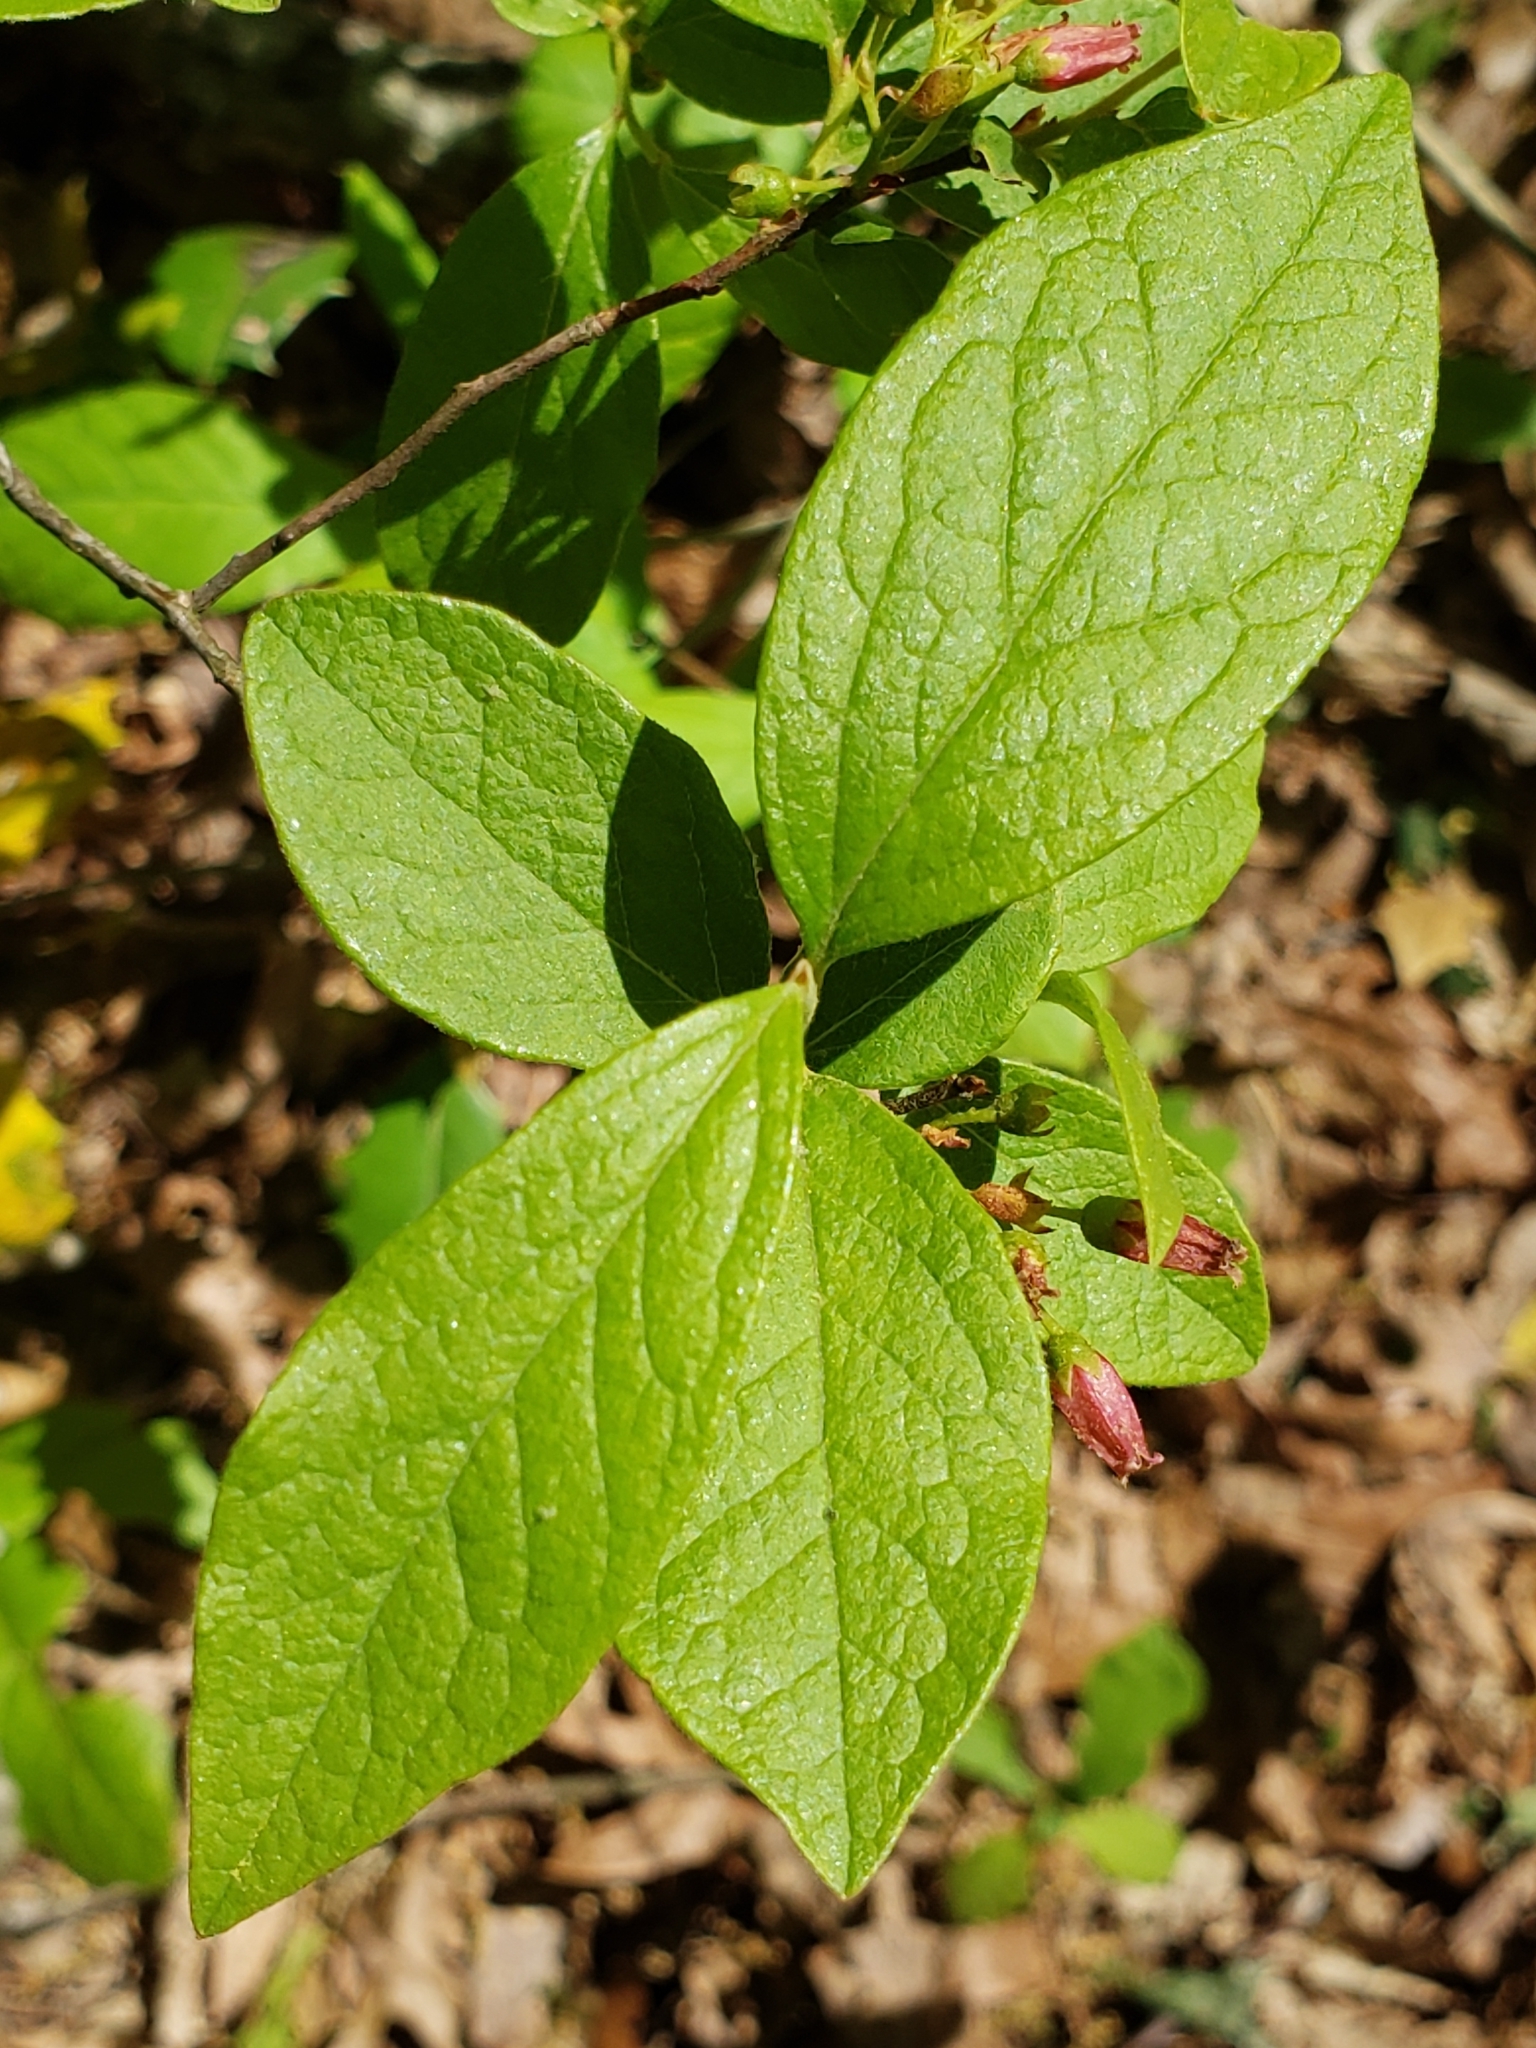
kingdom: Plantae
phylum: Tracheophyta
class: Magnoliopsida
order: Ericales
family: Ericaceae
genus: Gaylussacia
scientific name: Gaylussacia baccata
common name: Black huckleberry
